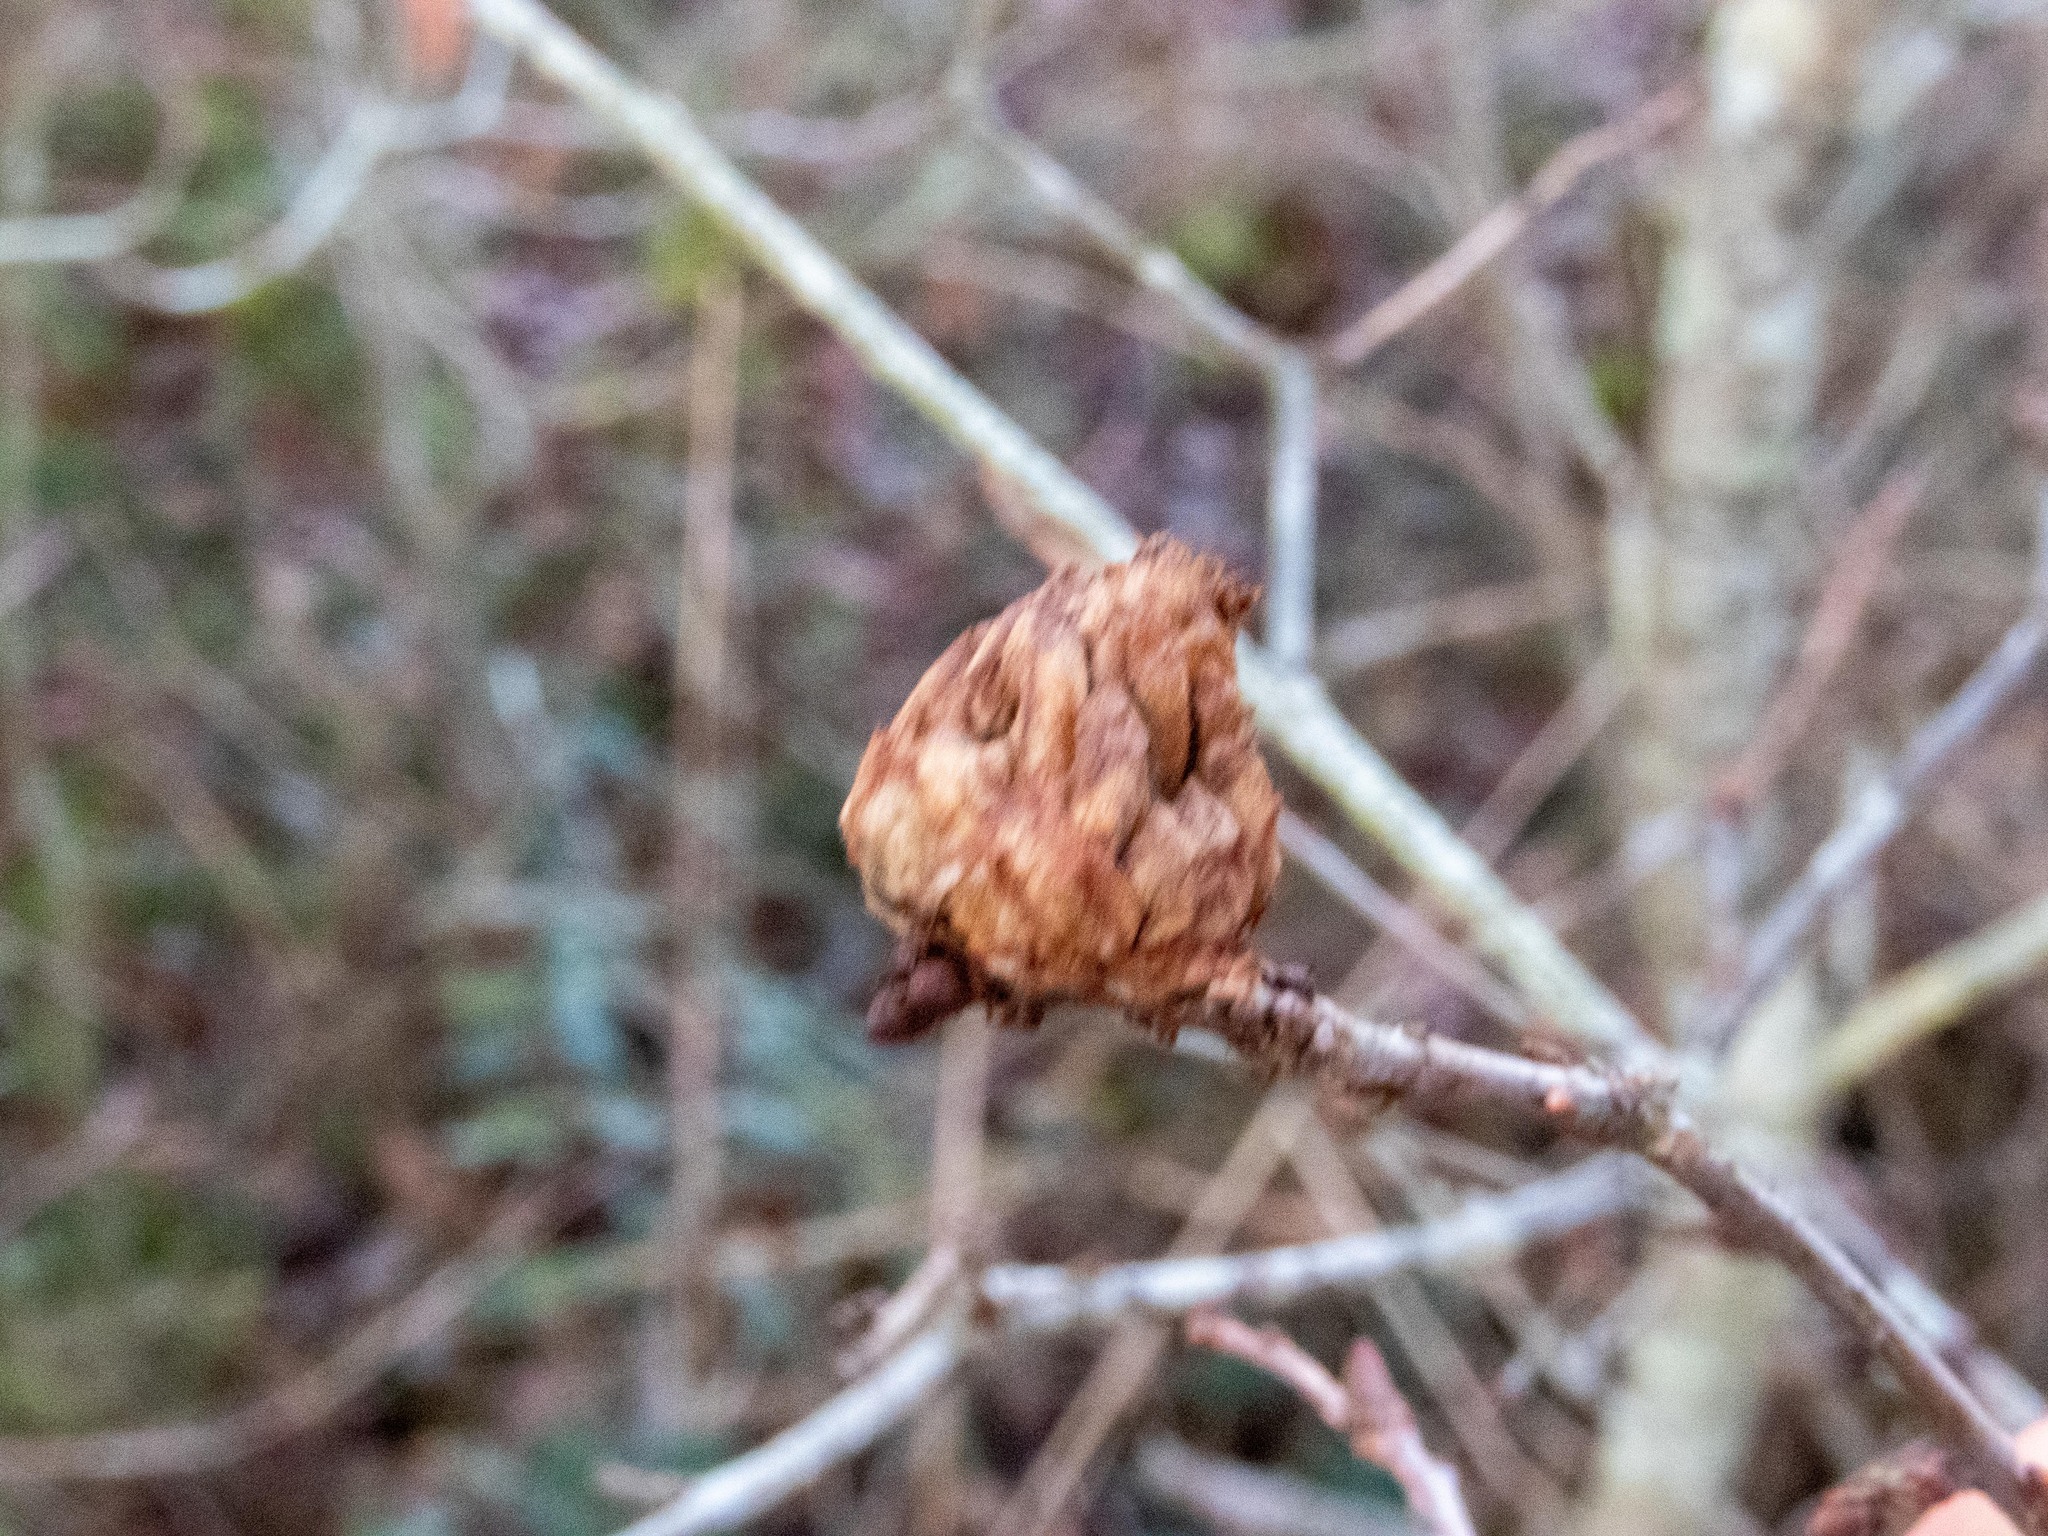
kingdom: Animalia
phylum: Arthropoda
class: Insecta
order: Hymenoptera
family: Cynipidae
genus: Andricus
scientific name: Andricus foecundatrix
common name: Artichoke gall
